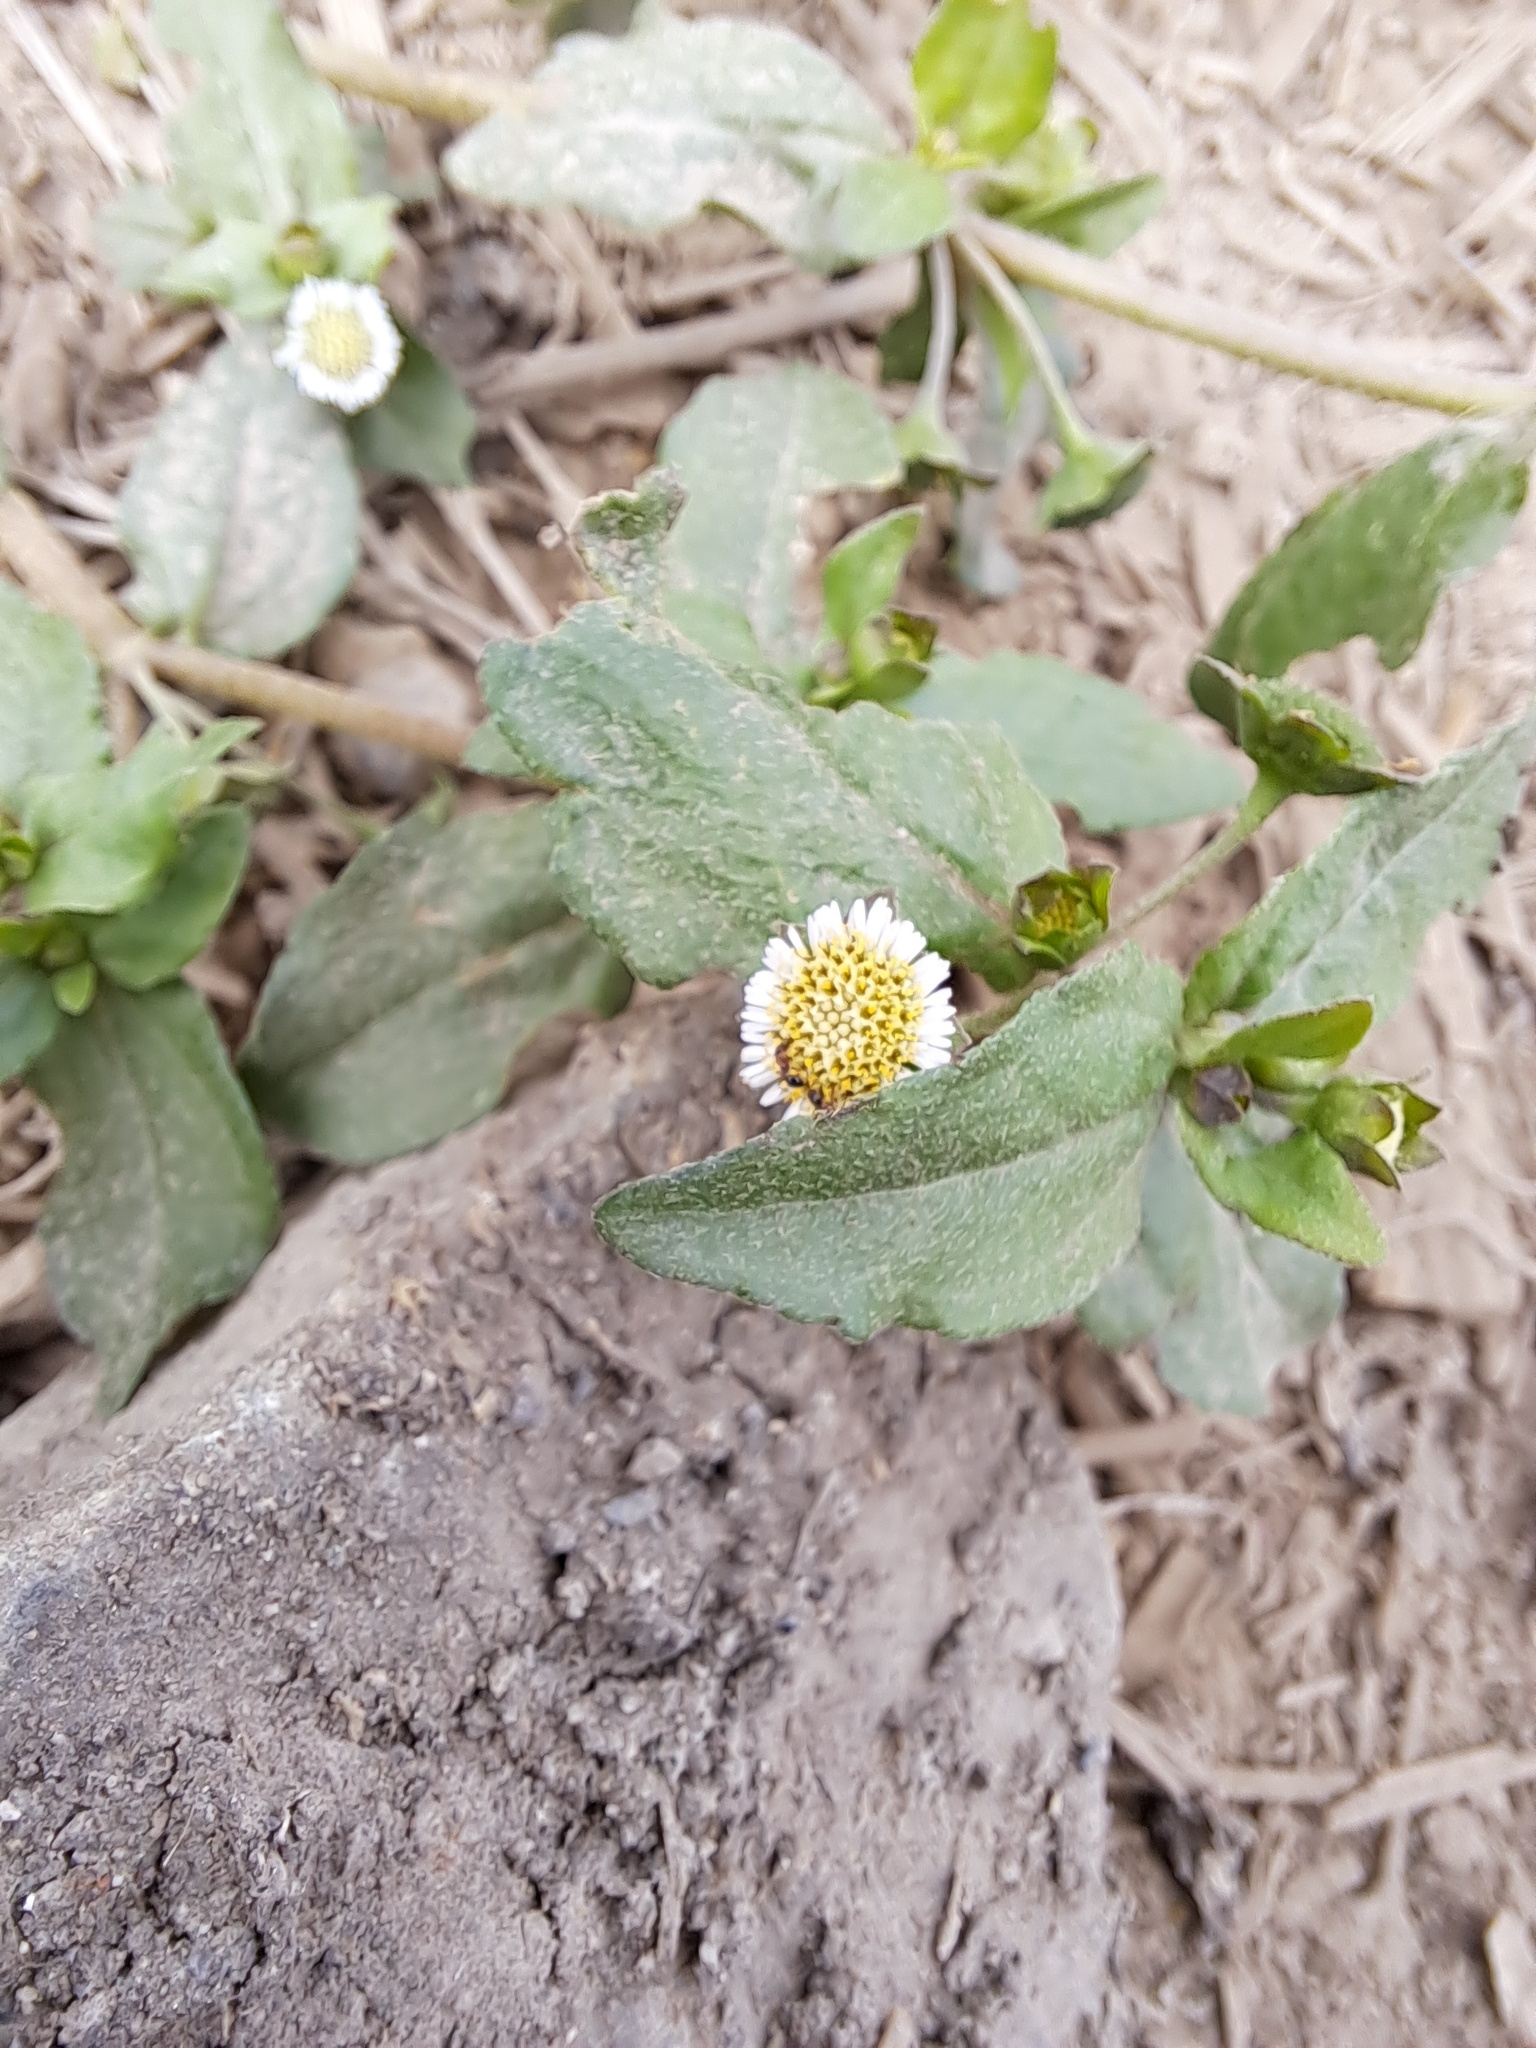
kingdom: Plantae
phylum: Tracheophyta
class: Magnoliopsida
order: Asterales
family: Asteraceae
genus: Eclipta
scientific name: Eclipta prostrata
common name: False daisy
